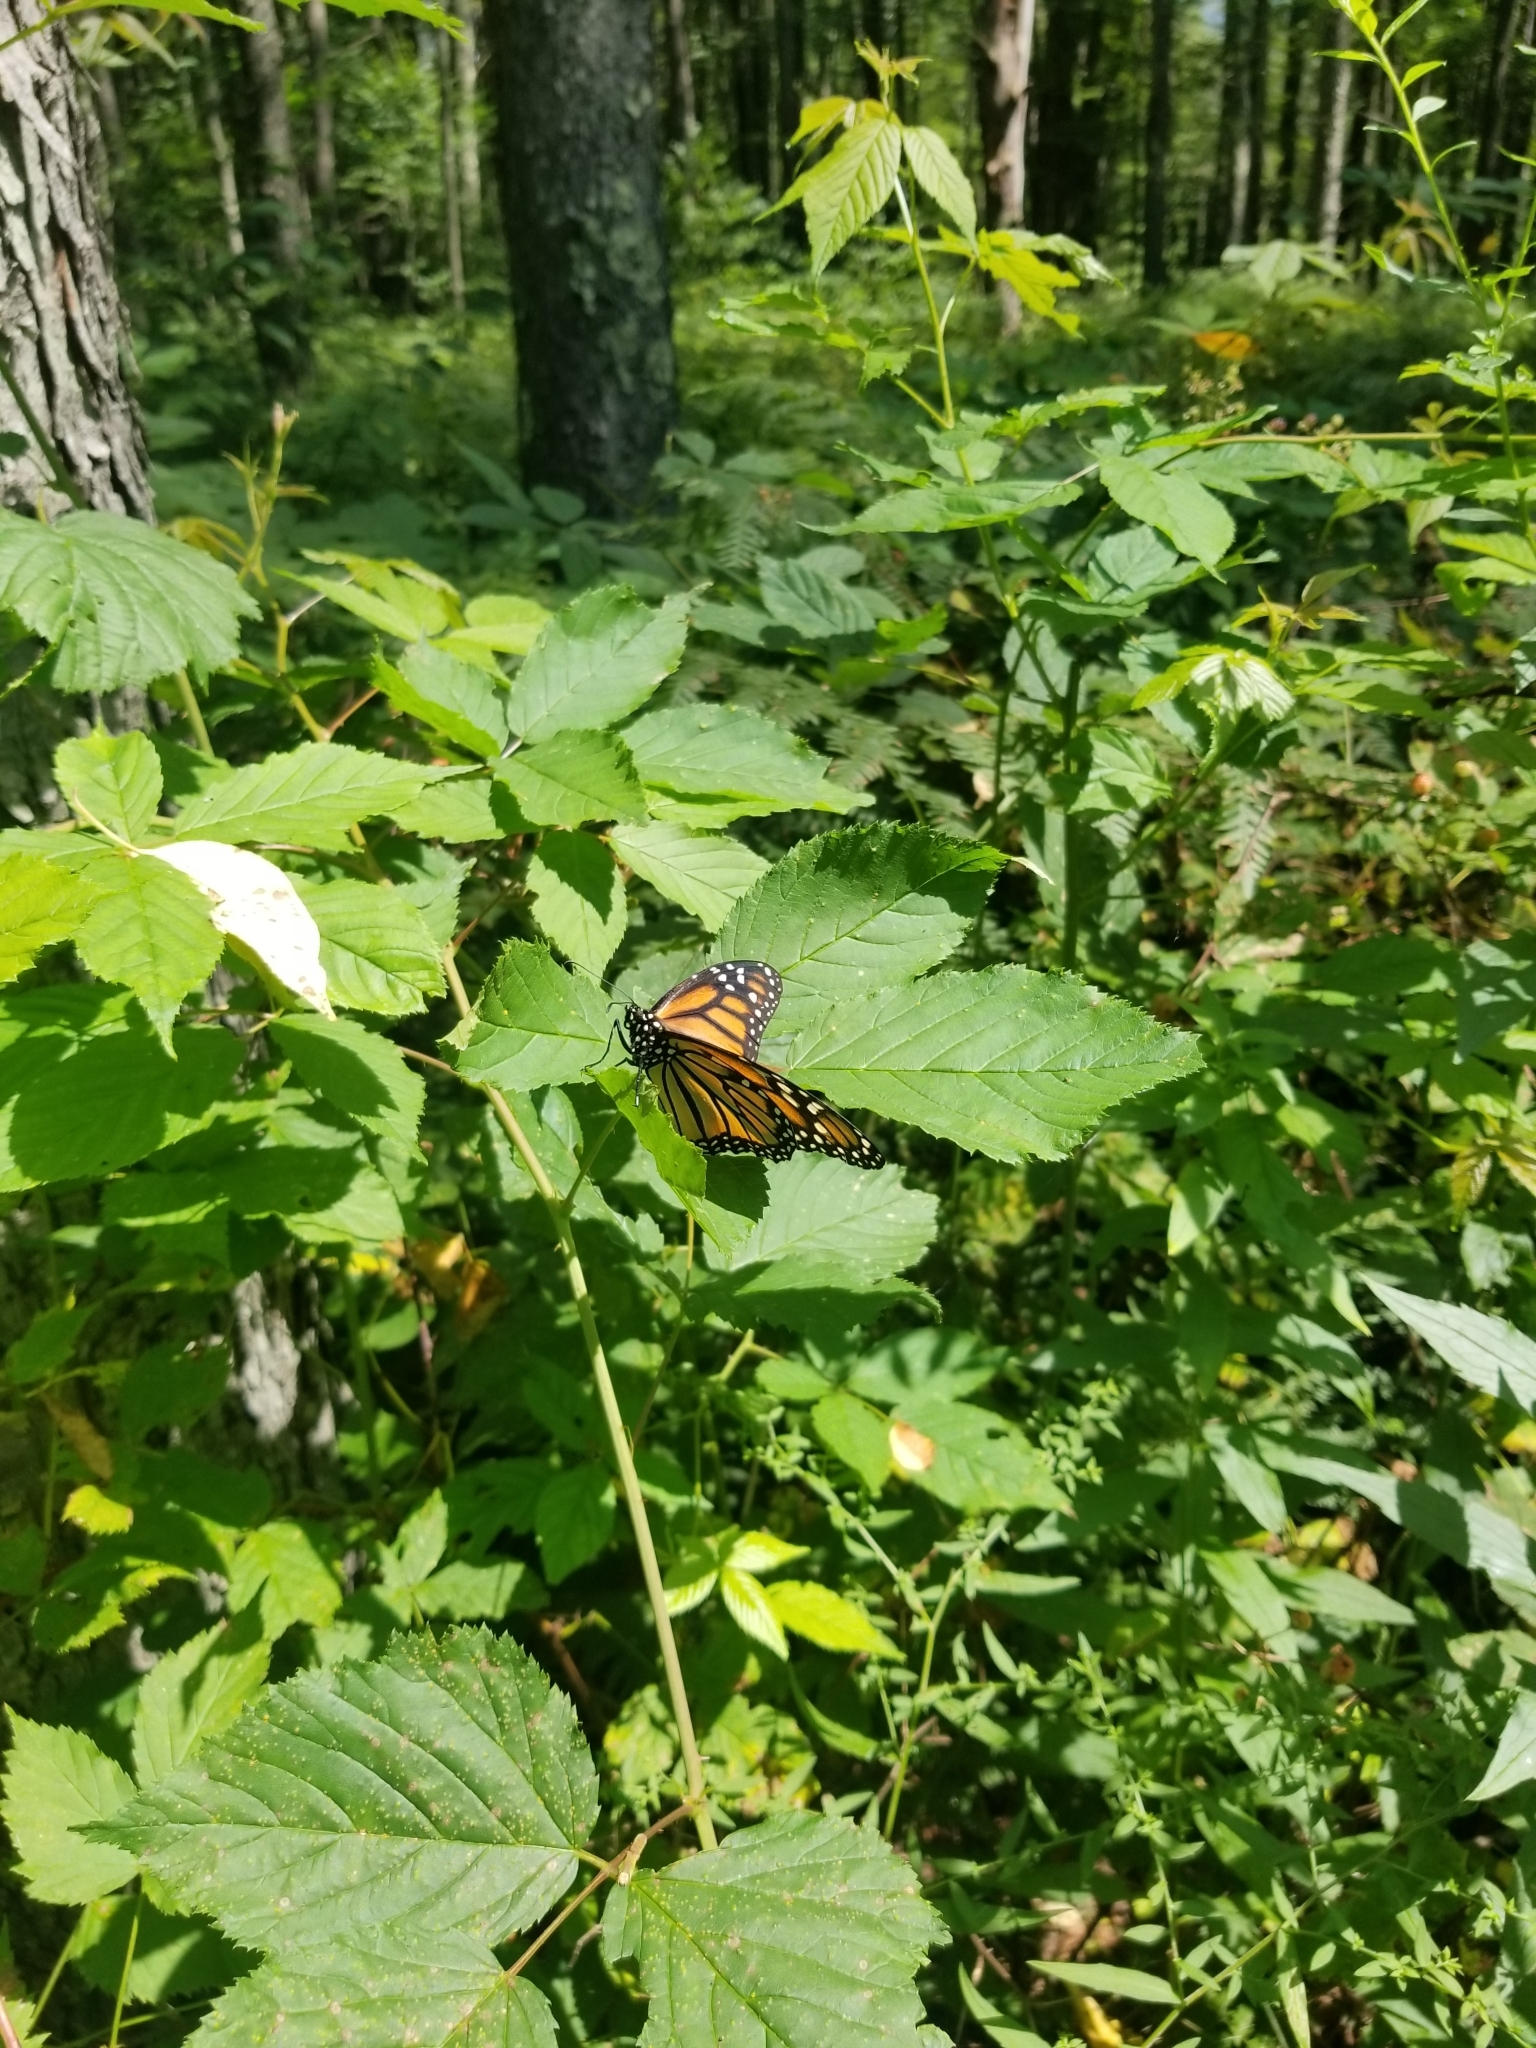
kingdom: Animalia
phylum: Arthropoda
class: Insecta
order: Lepidoptera
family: Nymphalidae
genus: Danaus
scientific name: Danaus plexippus
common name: Monarch
